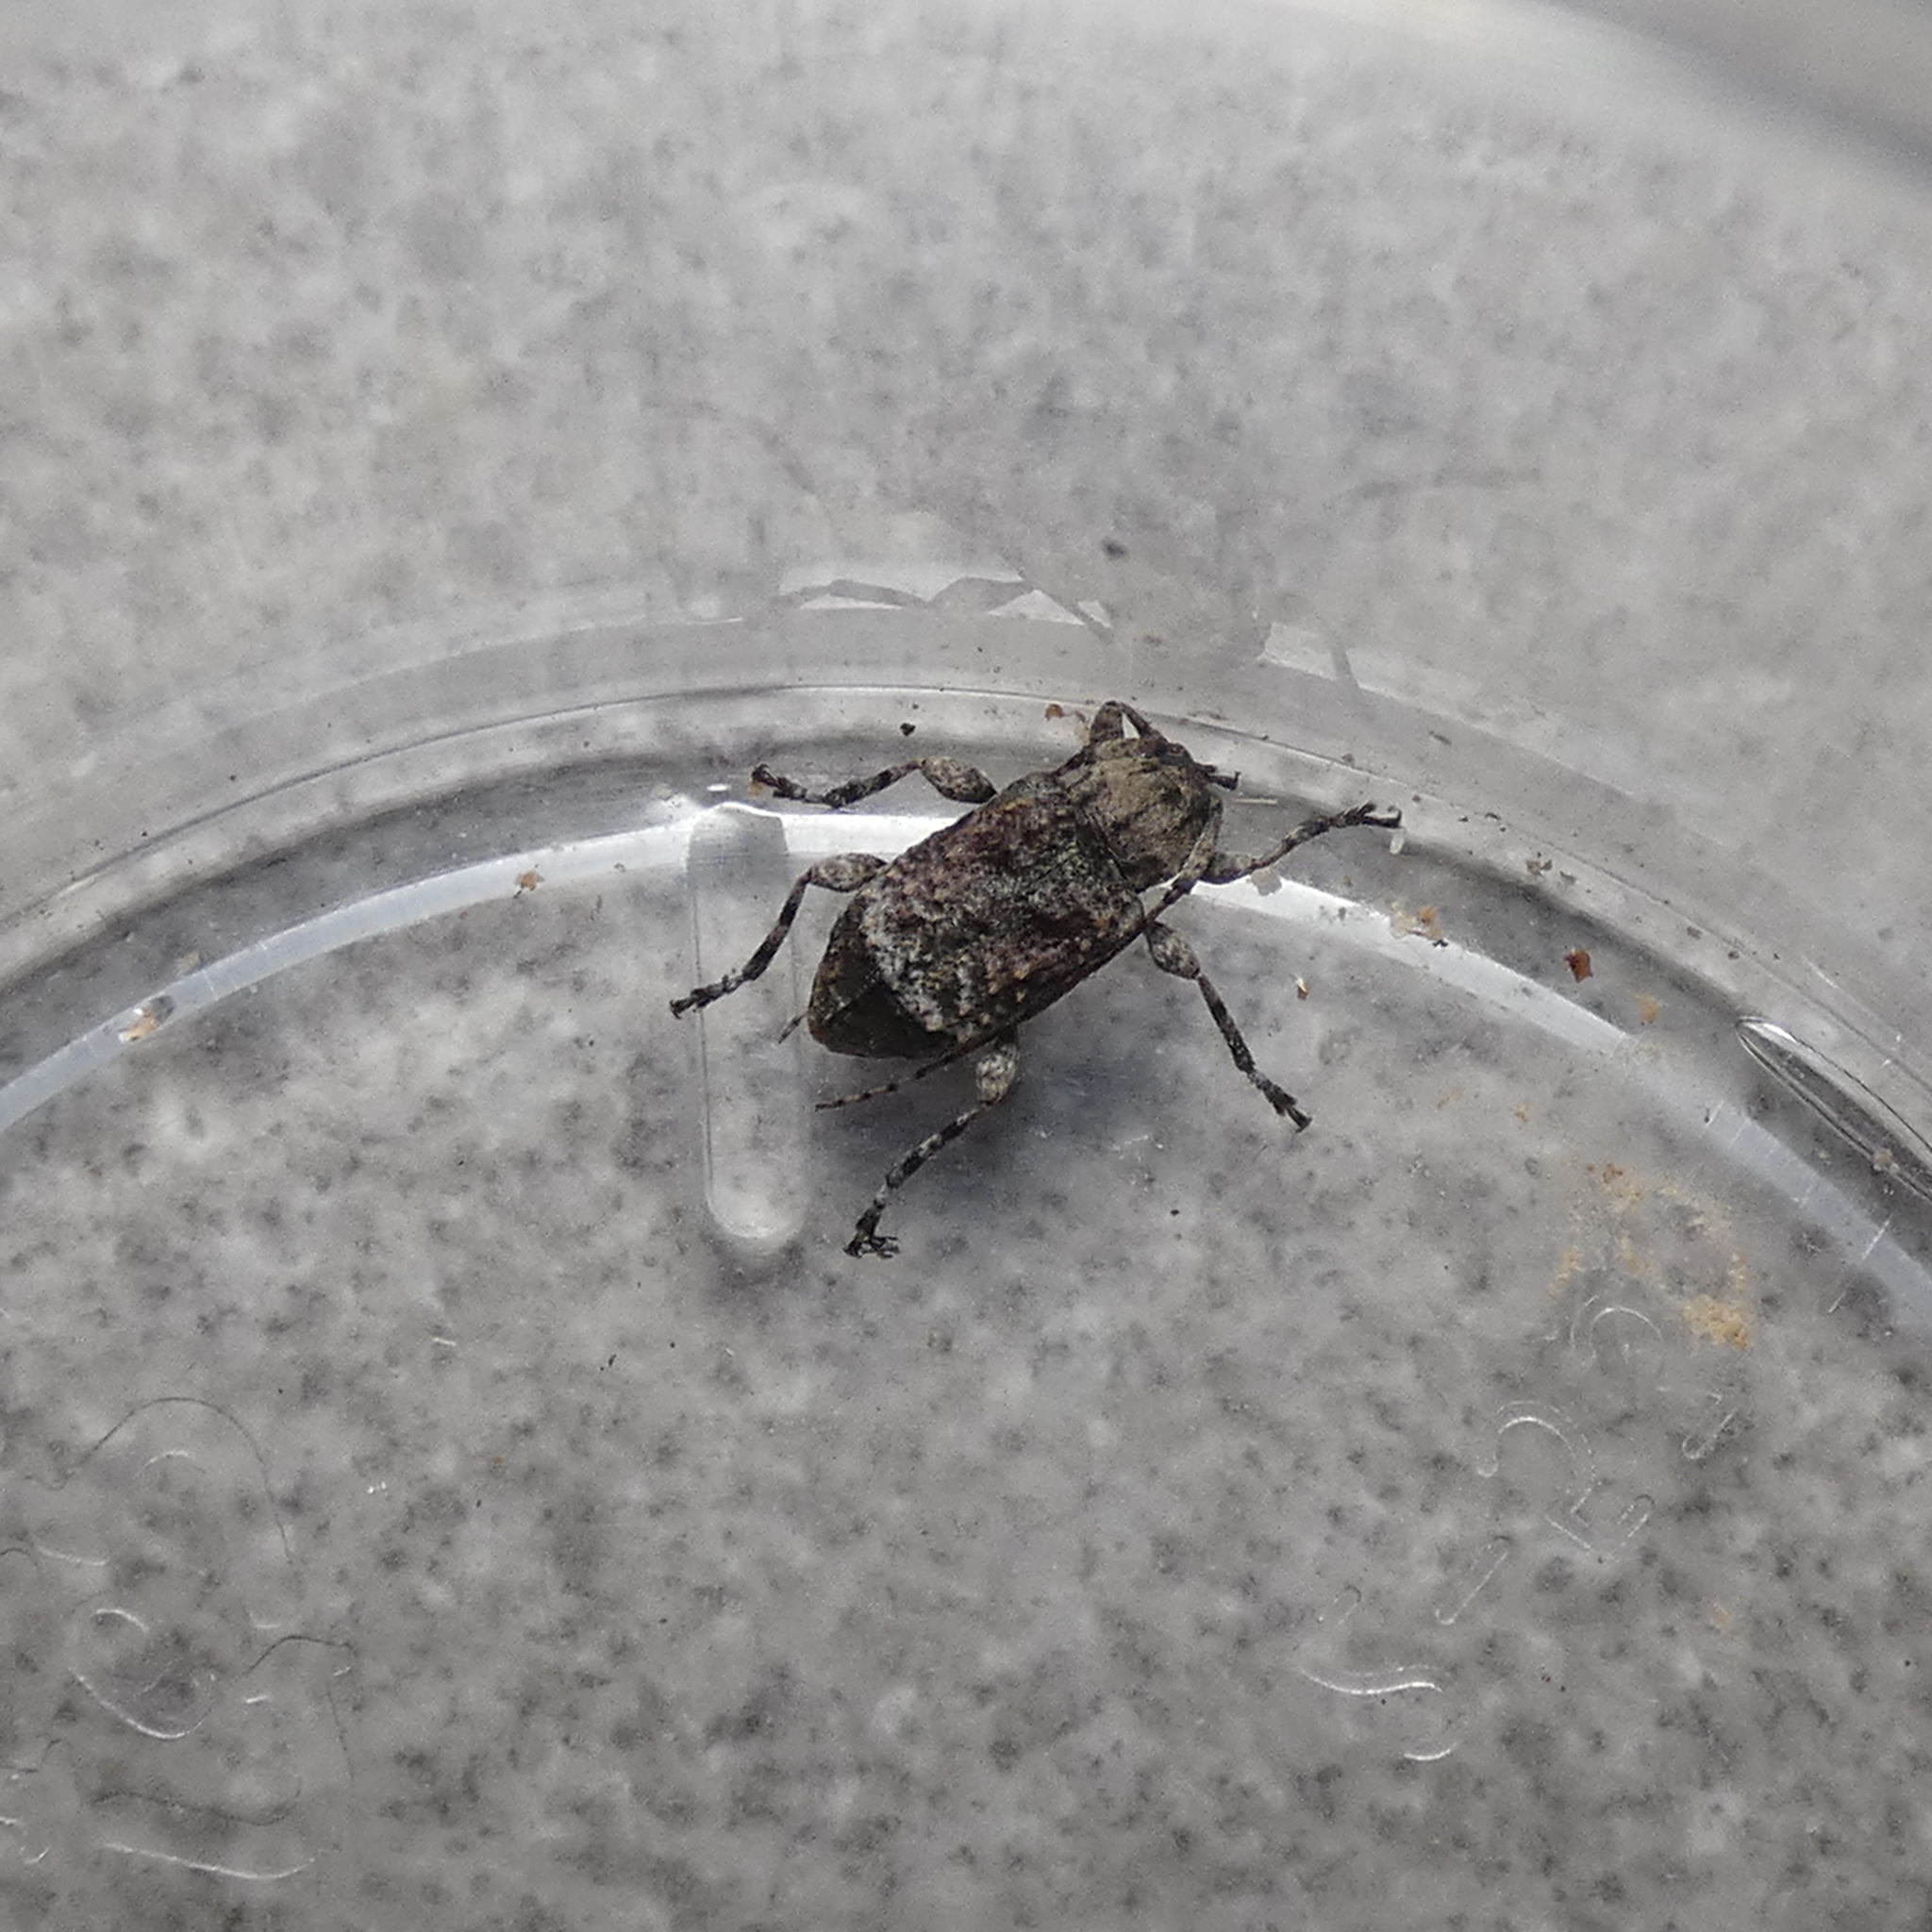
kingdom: Animalia
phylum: Arthropoda
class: Insecta
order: Coleoptera
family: Cerambycidae
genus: Leptostylus
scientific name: Leptostylus transversus
